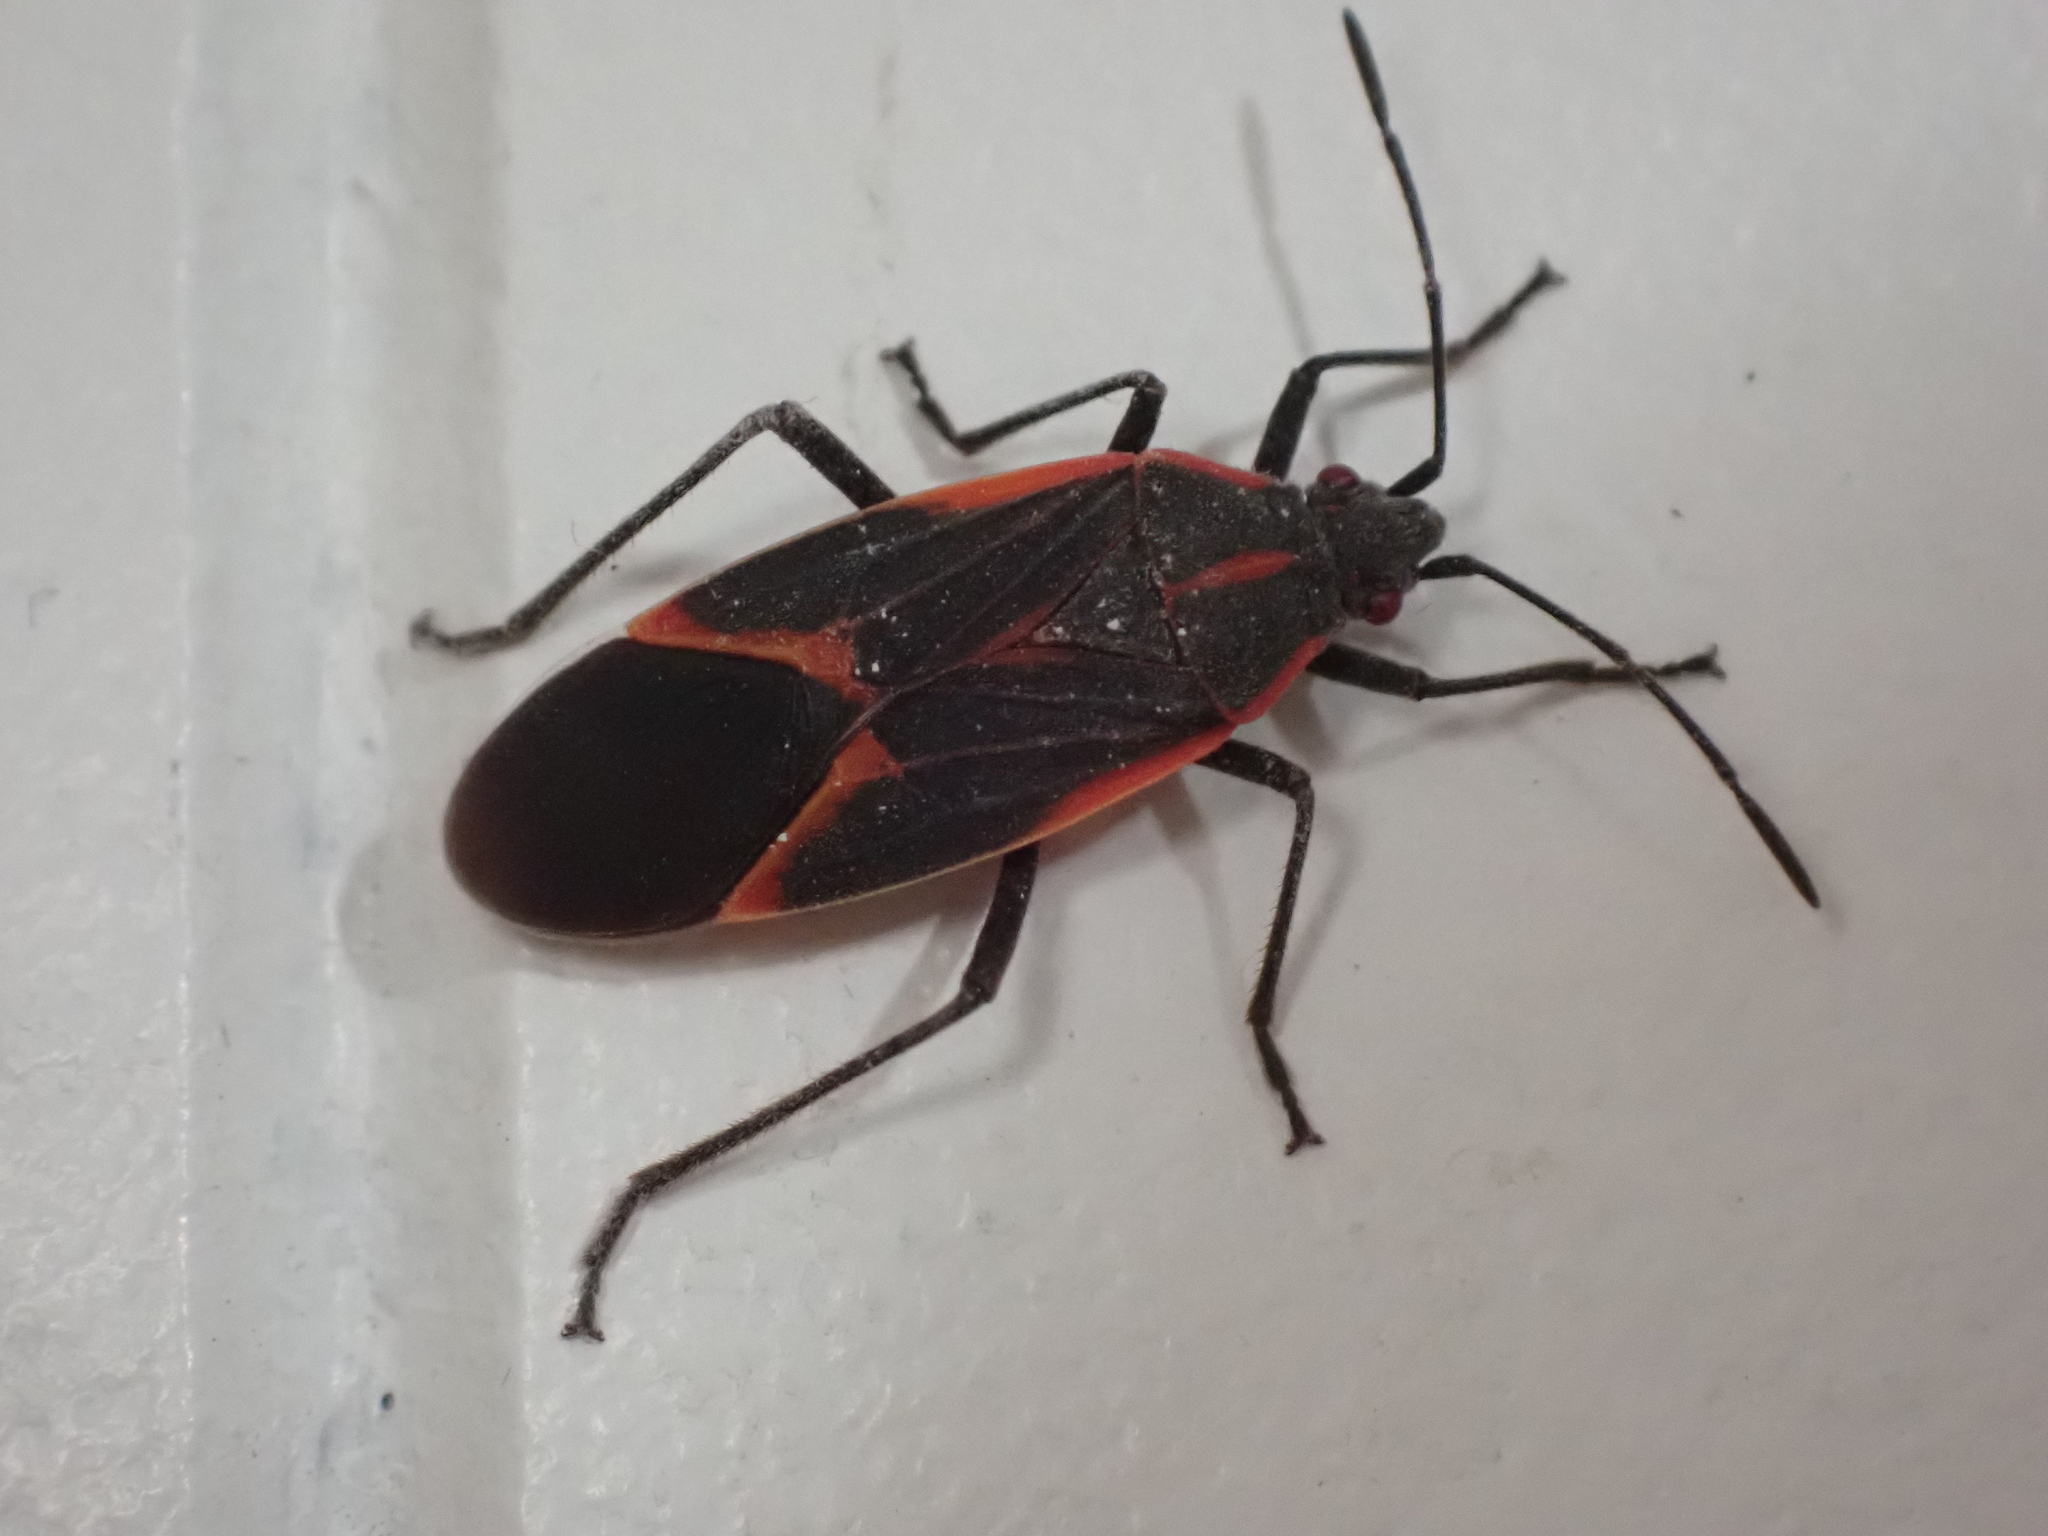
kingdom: Animalia
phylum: Arthropoda
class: Insecta
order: Hemiptera
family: Rhopalidae
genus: Boisea
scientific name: Boisea trivittata
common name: Boxelder bug
